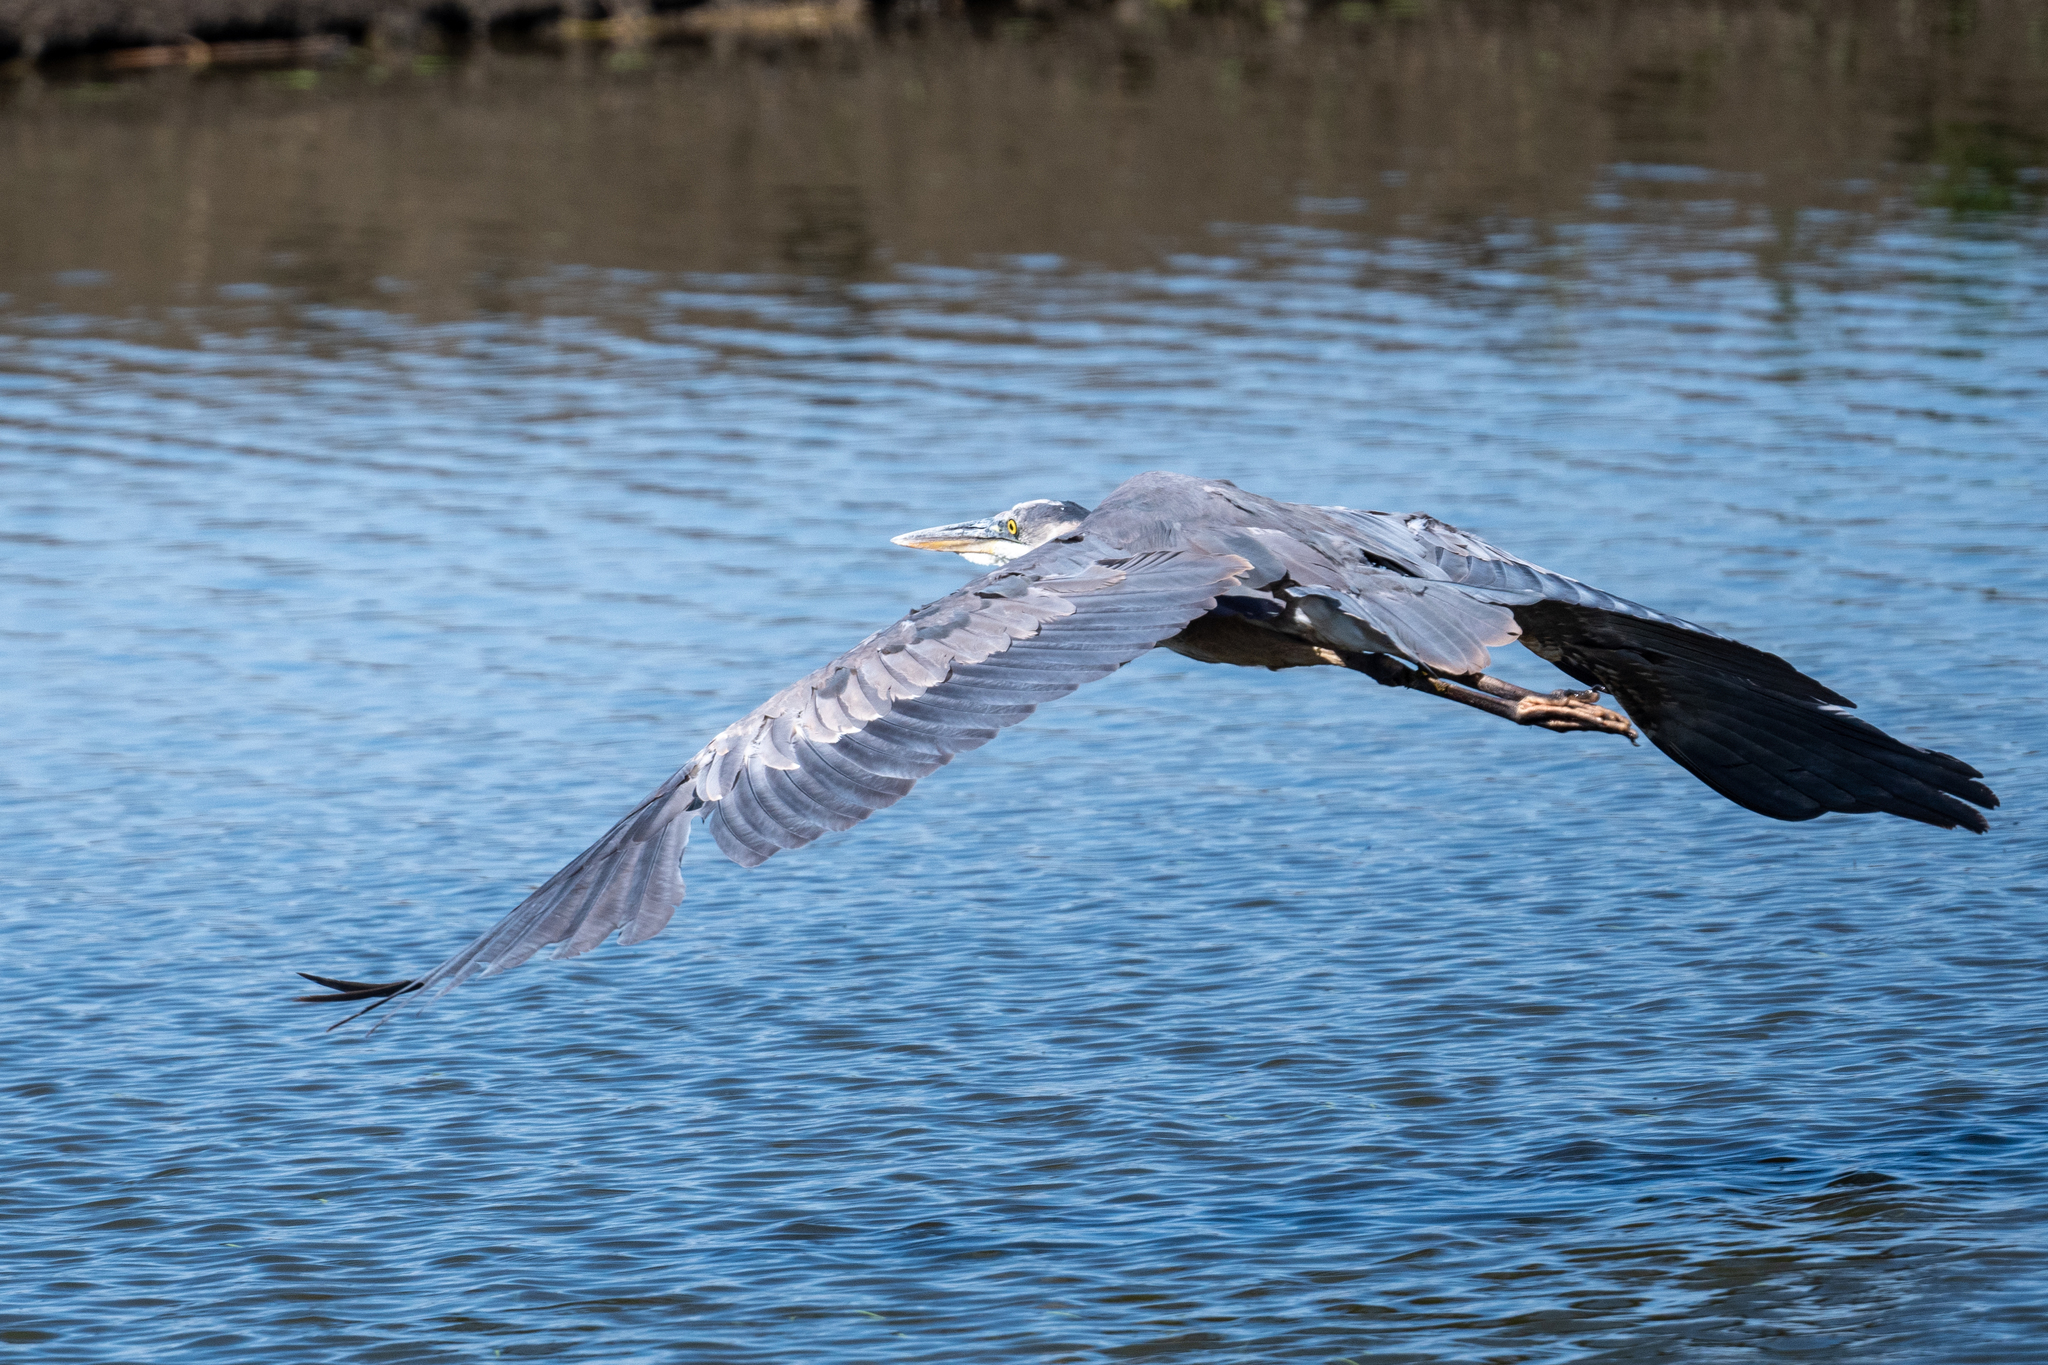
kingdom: Animalia
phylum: Chordata
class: Aves
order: Pelecaniformes
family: Ardeidae
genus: Ardea
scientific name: Ardea herodias
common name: Great blue heron
